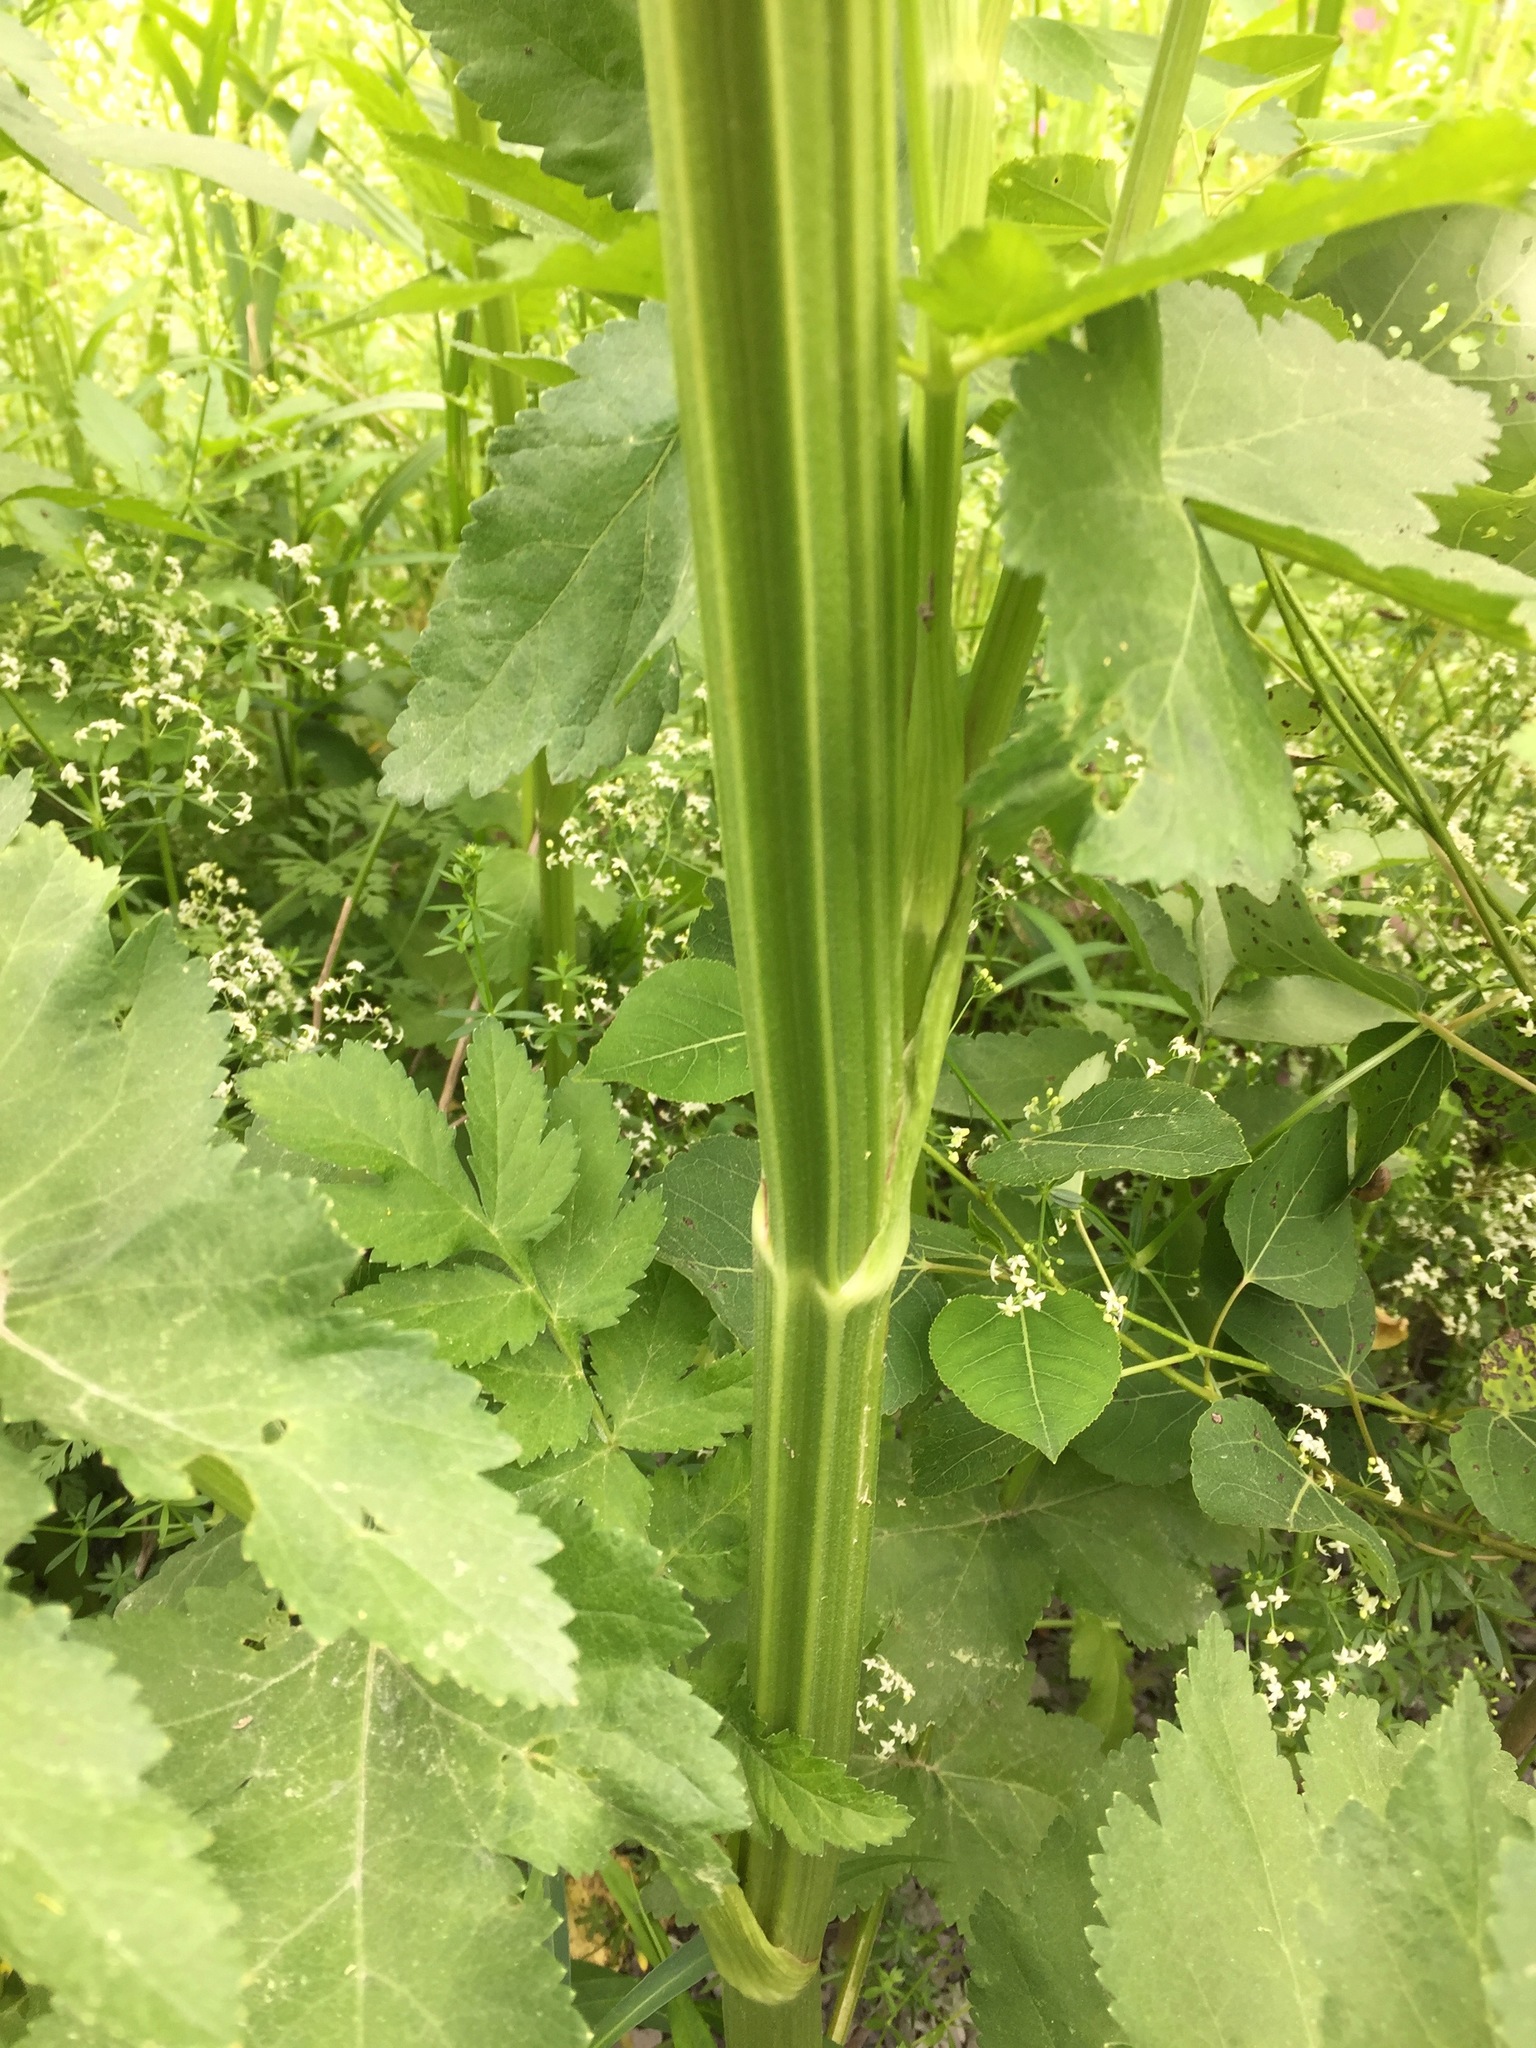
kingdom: Plantae
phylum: Tracheophyta
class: Magnoliopsida
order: Apiales
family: Apiaceae
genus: Pastinaca
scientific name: Pastinaca sativa
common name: Wild parsnip
